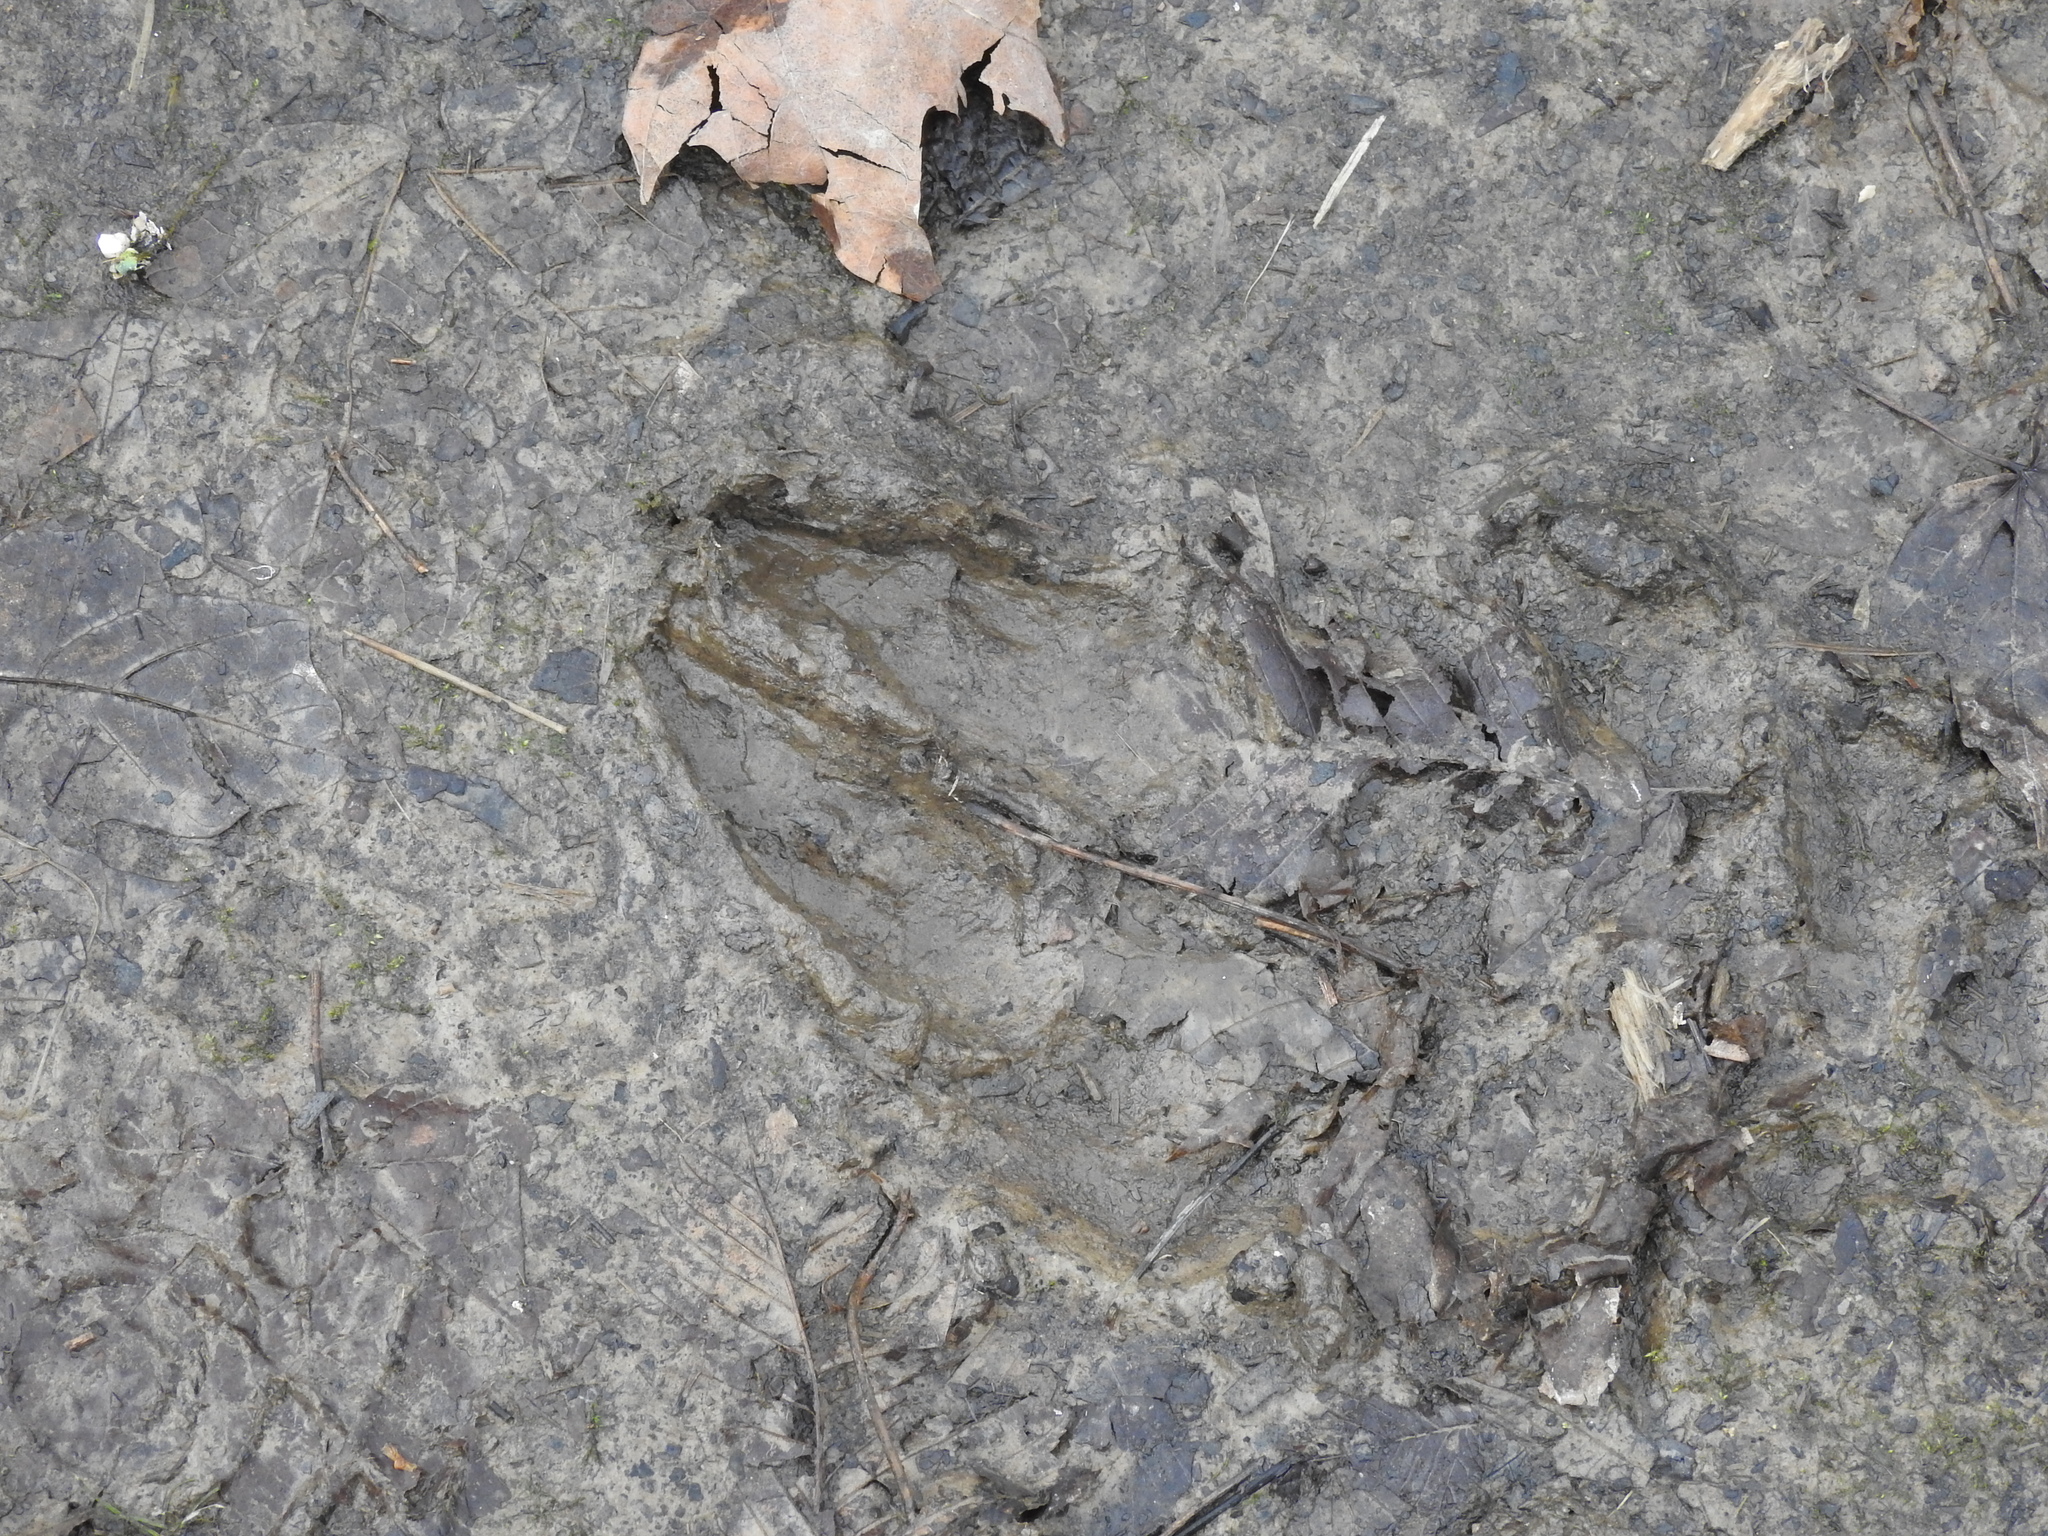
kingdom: Animalia
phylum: Chordata
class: Mammalia
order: Artiodactyla
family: Cervidae
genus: Odocoileus
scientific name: Odocoileus virginianus
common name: White-tailed deer
